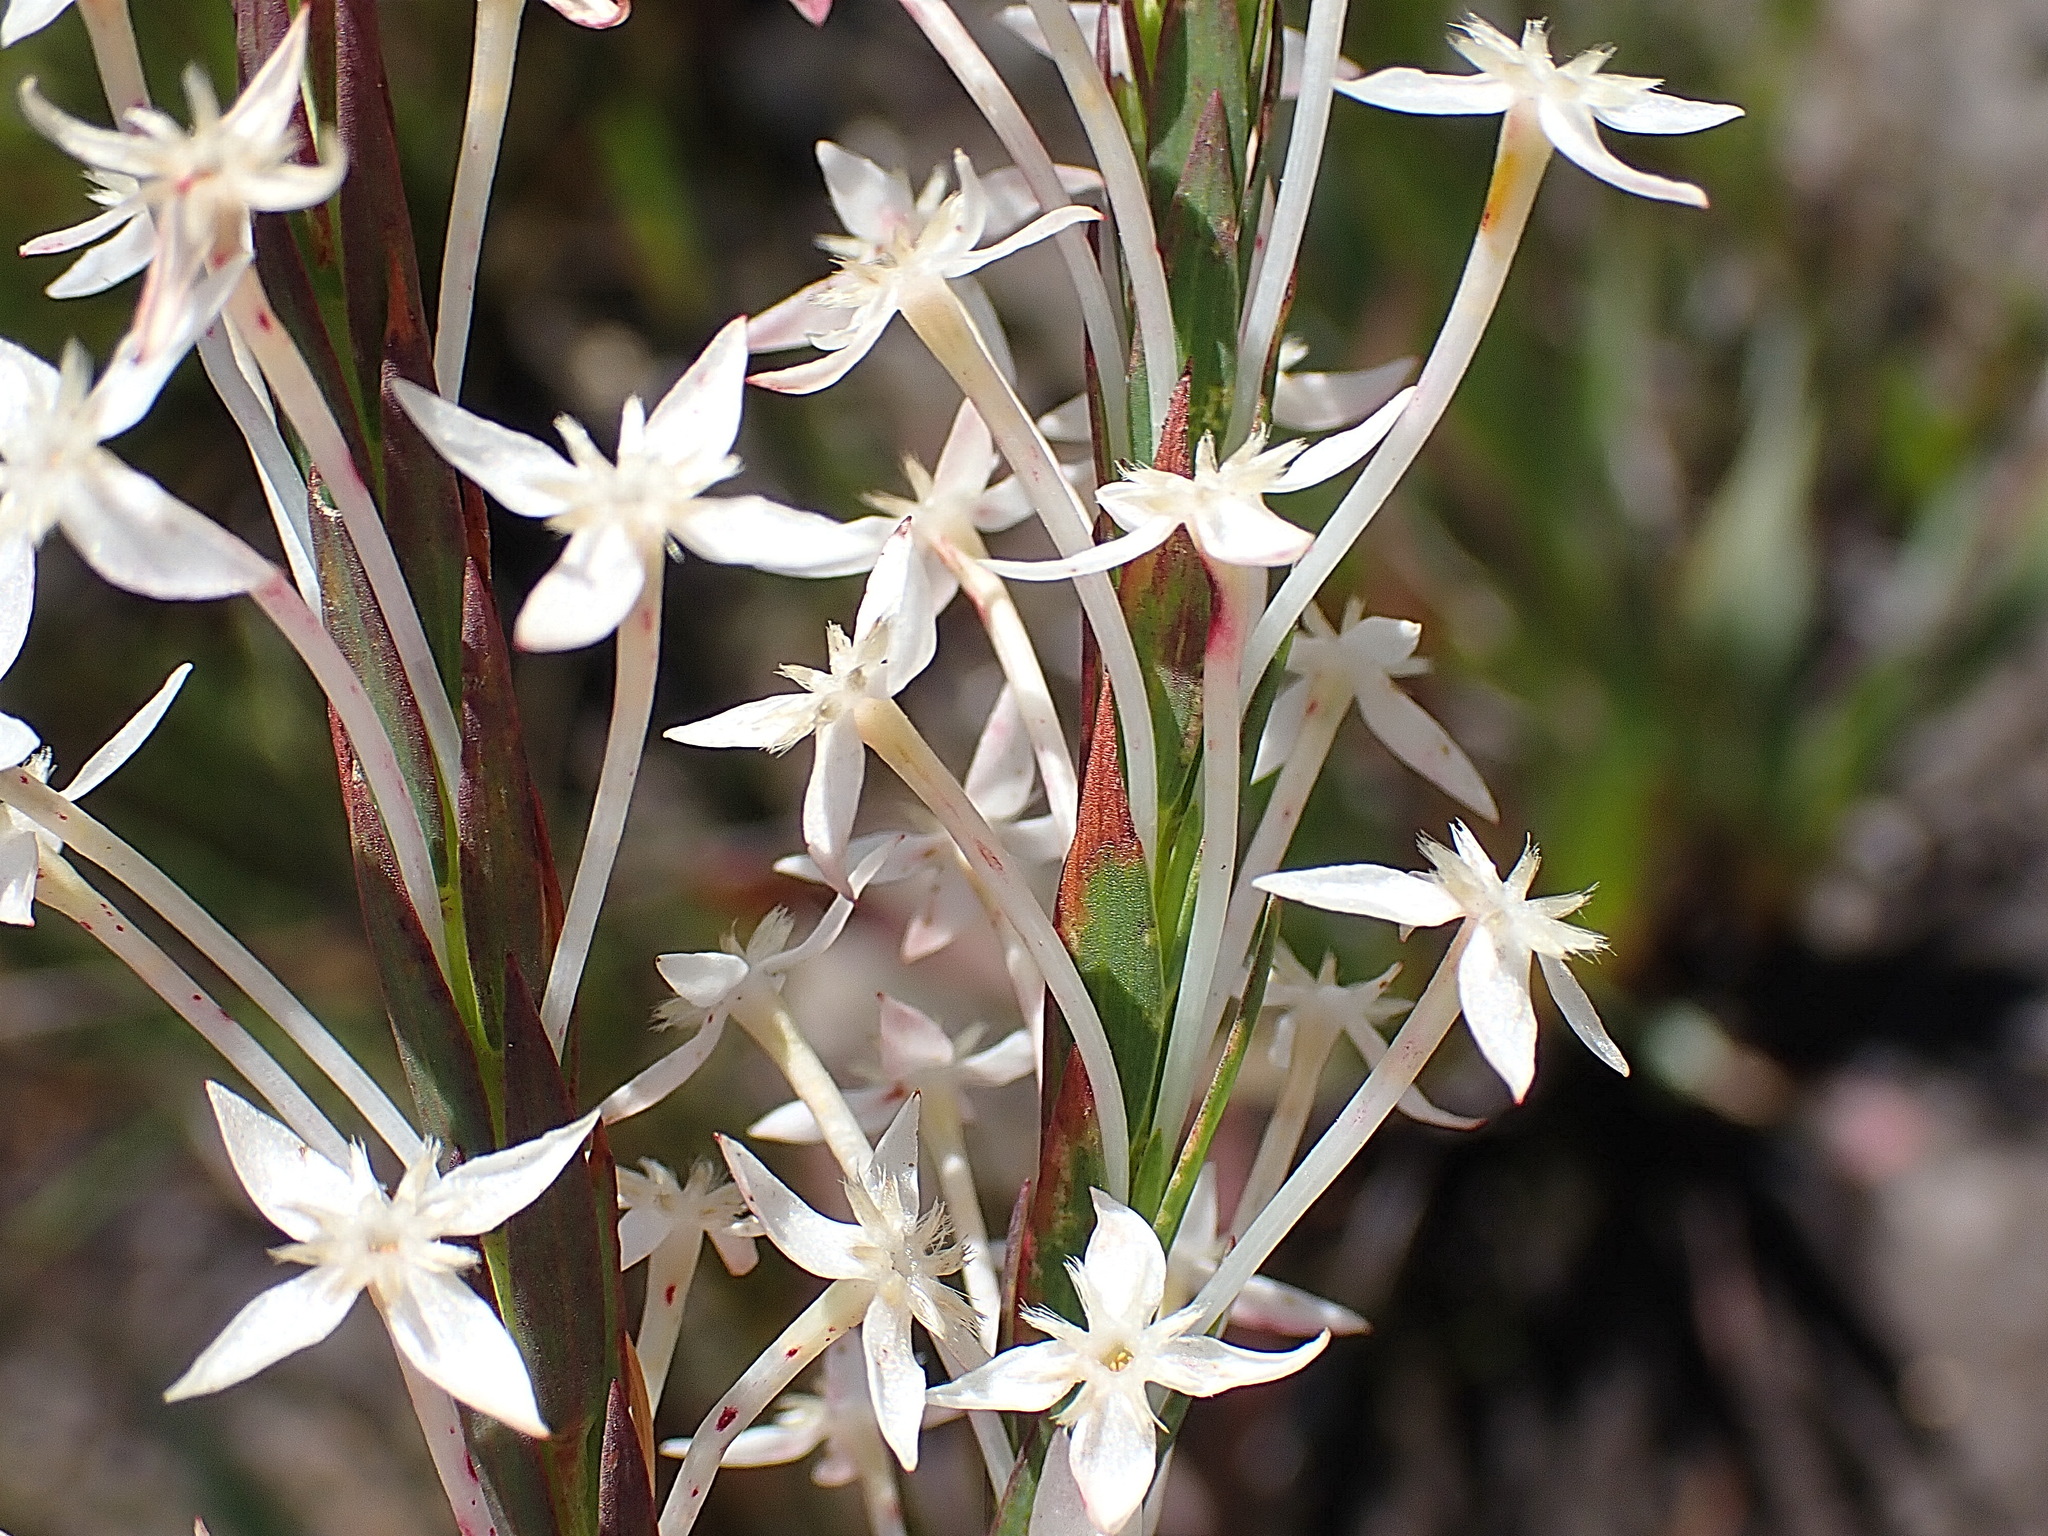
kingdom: Plantae
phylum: Tracheophyta
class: Magnoliopsida
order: Malvales
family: Thymelaeaceae
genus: Struthiola
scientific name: Struthiola myrsinites
